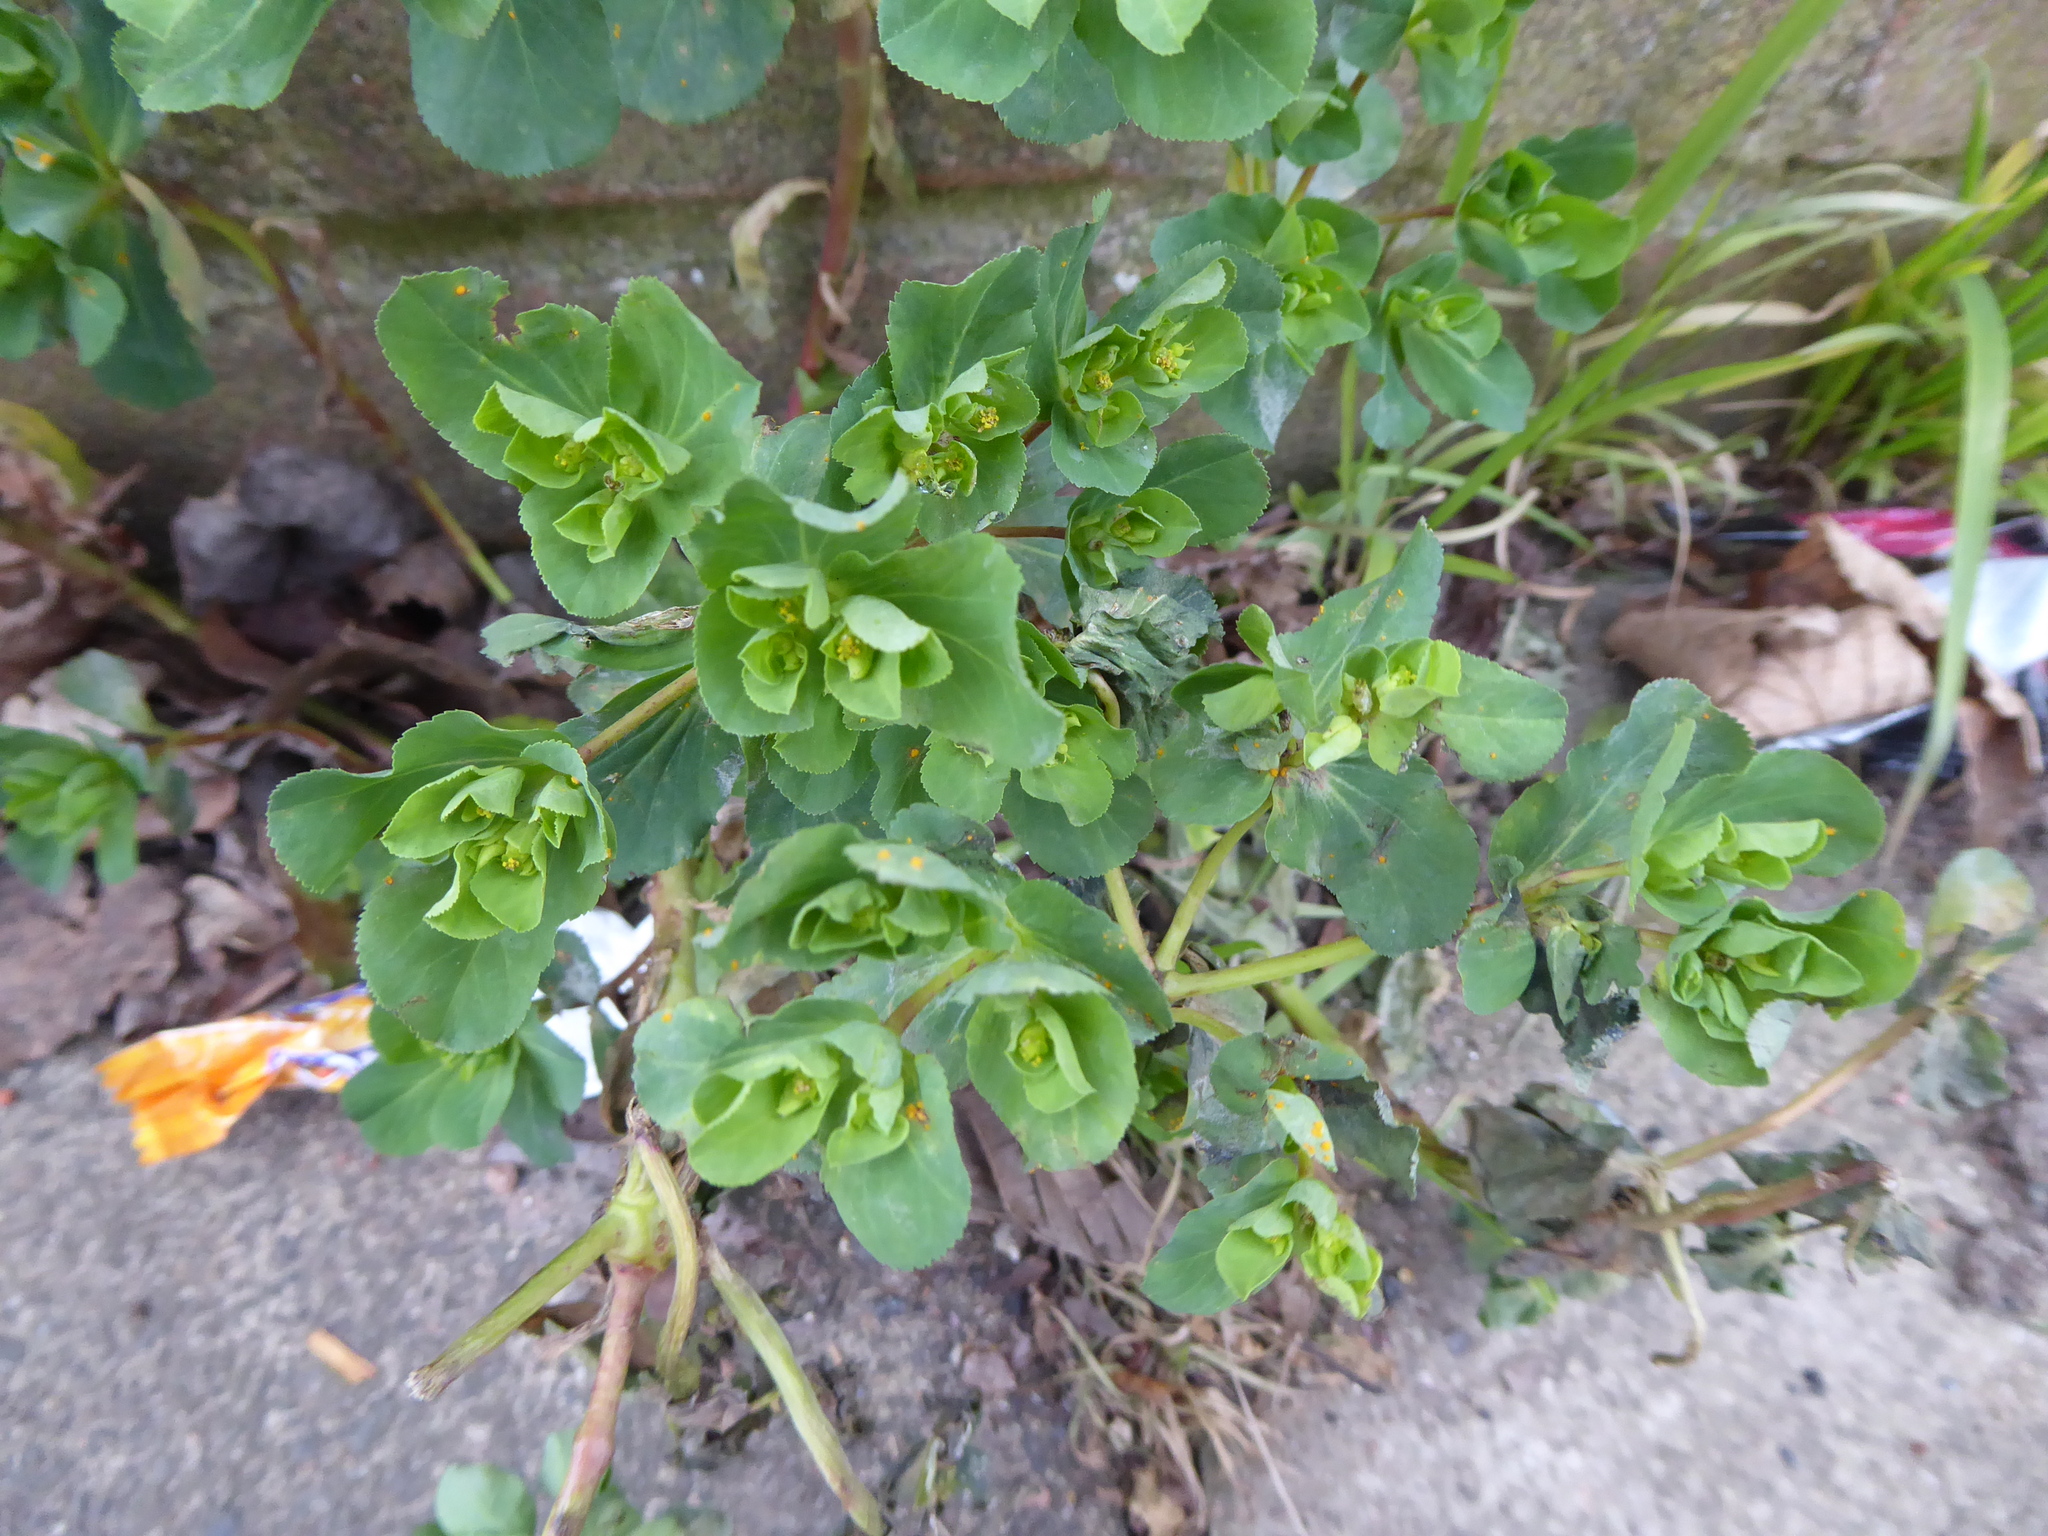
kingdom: Plantae
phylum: Tracheophyta
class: Magnoliopsida
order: Malpighiales
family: Euphorbiaceae
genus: Euphorbia
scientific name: Euphorbia helioscopia
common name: Sun spurge
